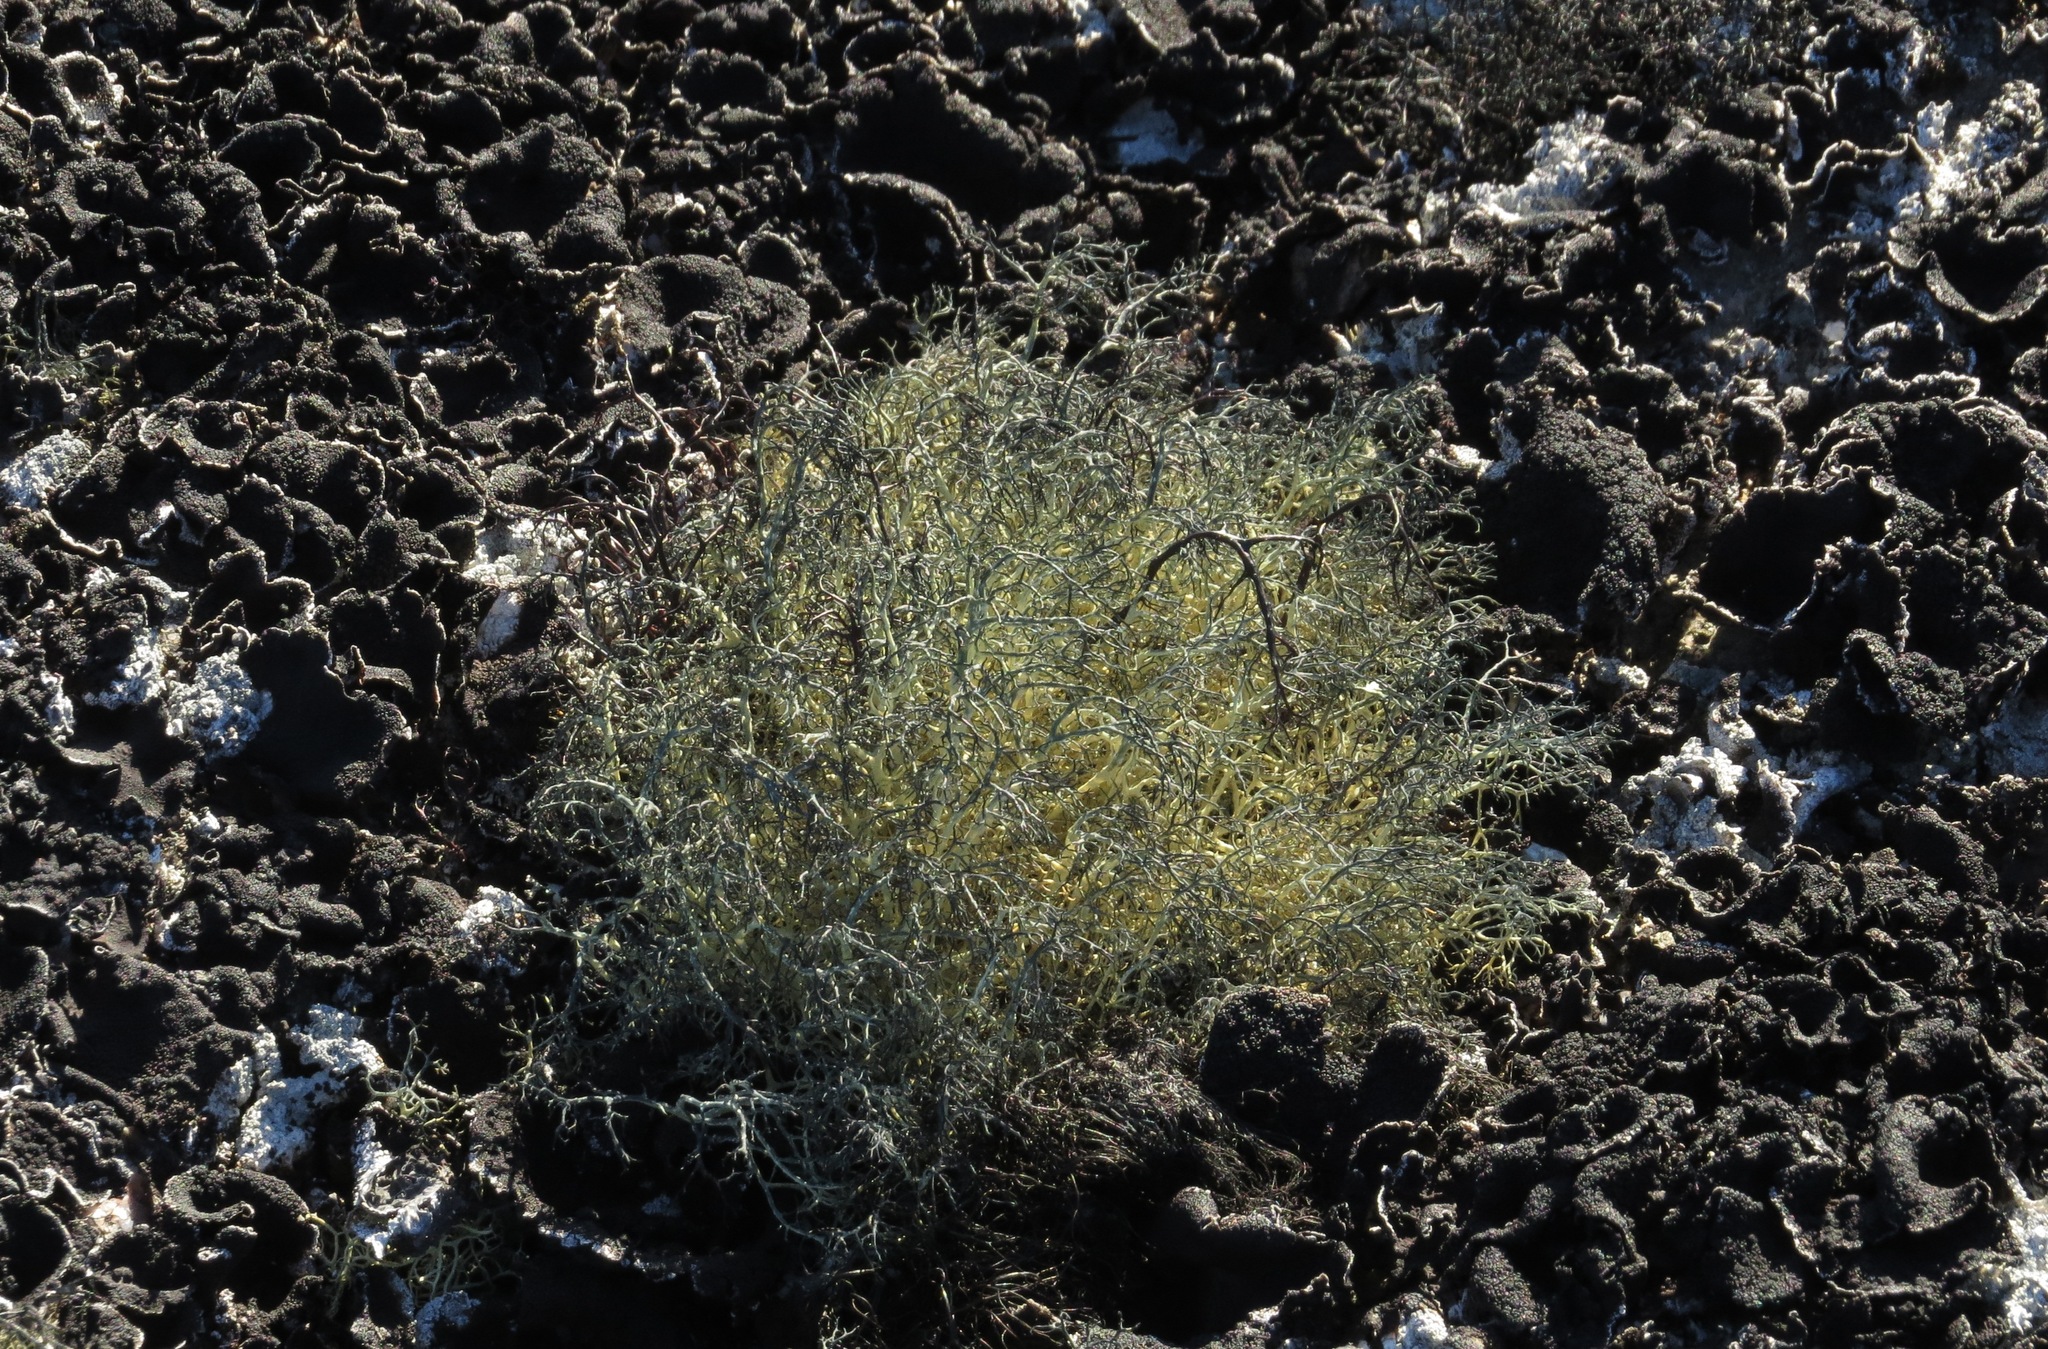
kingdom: Fungi
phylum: Ascomycota
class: Lecanoromycetes
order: Lecanorales
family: Parmeliaceae
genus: Alectoria
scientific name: Alectoria ochroleuca
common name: Alpine sulphur-tresses
